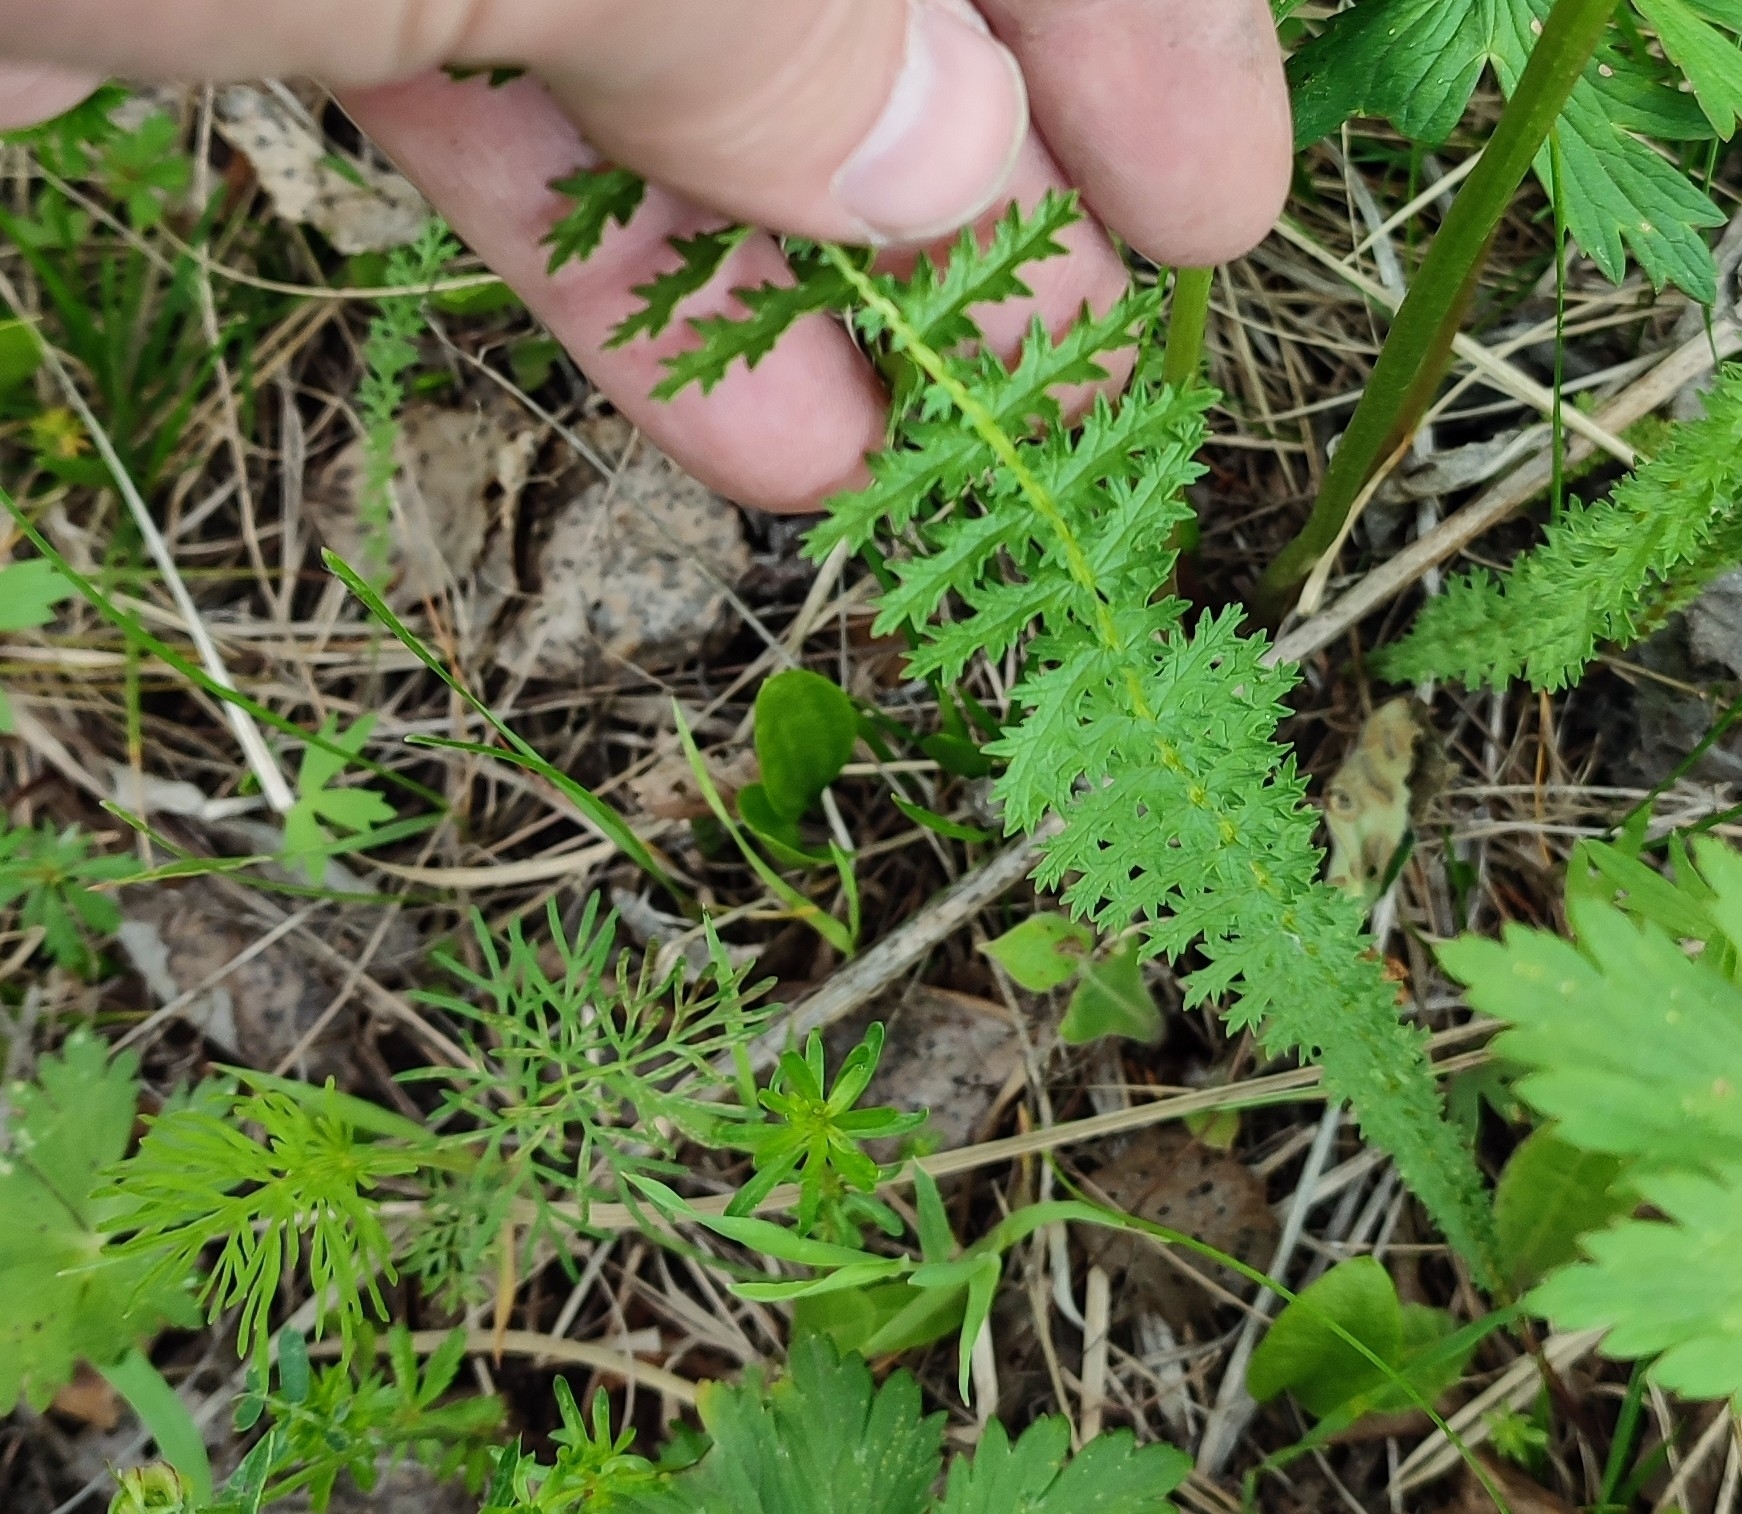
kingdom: Plantae
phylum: Tracheophyta
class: Magnoliopsida
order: Rosales
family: Rosaceae
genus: Filipendula
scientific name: Filipendula vulgaris
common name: Dropwort
